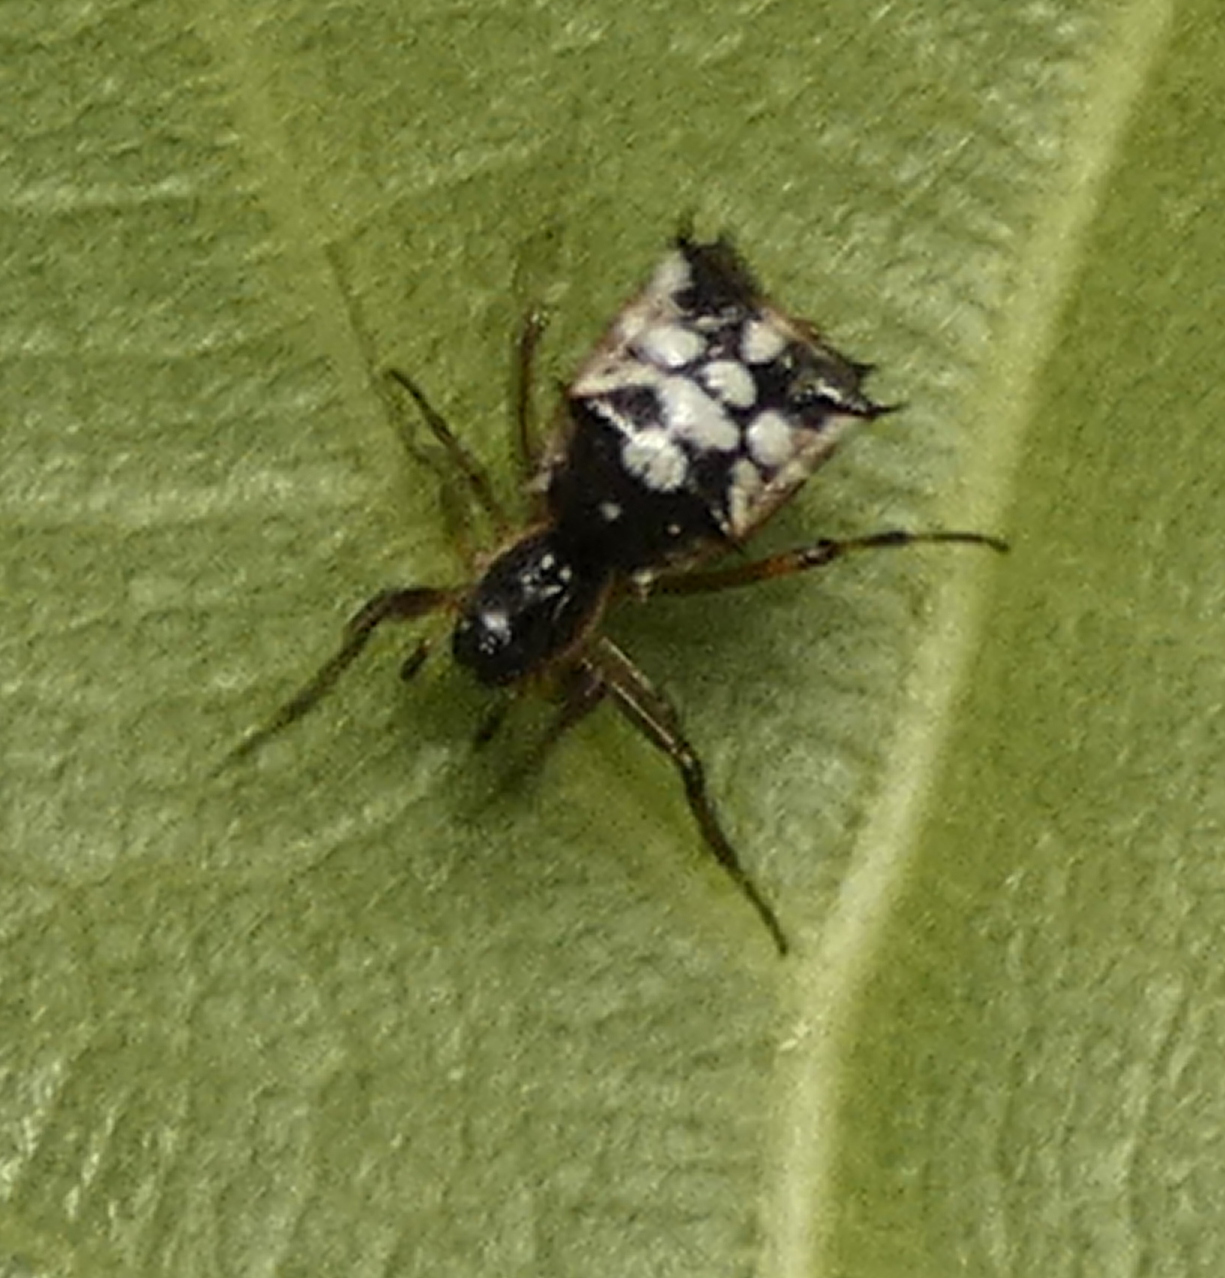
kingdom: Animalia
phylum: Arthropoda
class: Arachnida
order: Araneae
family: Araneidae
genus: Micrathena
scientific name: Micrathena picta
